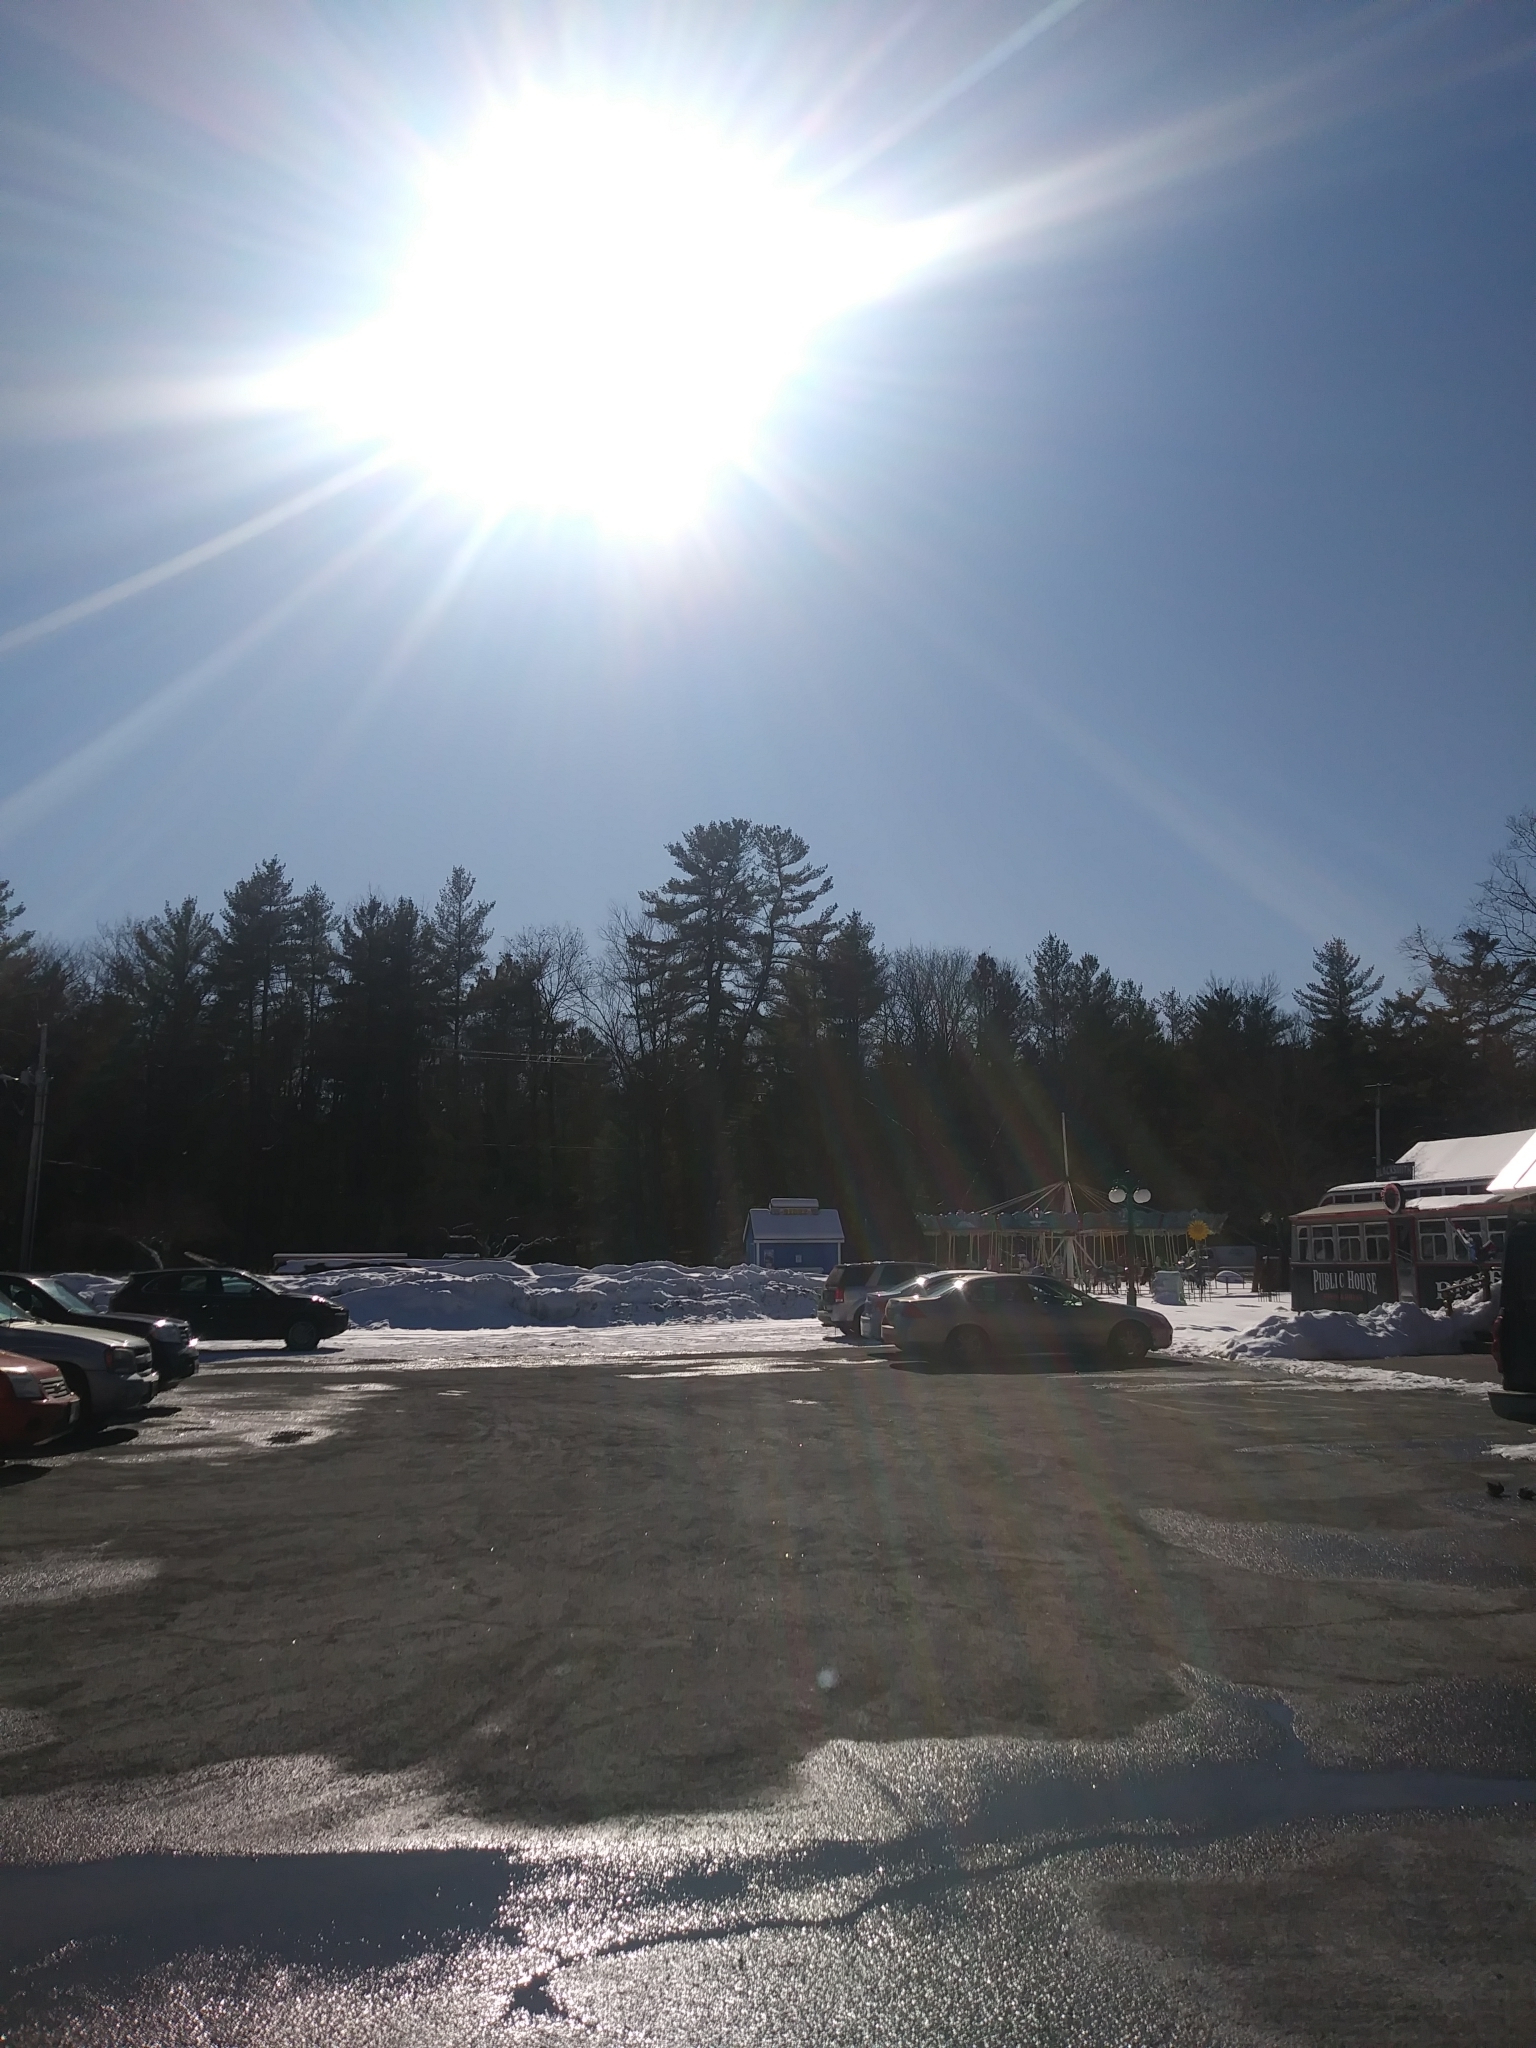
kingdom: Plantae
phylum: Tracheophyta
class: Pinopsida
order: Pinales
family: Pinaceae
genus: Pinus
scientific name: Pinus strobus
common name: Weymouth pine
